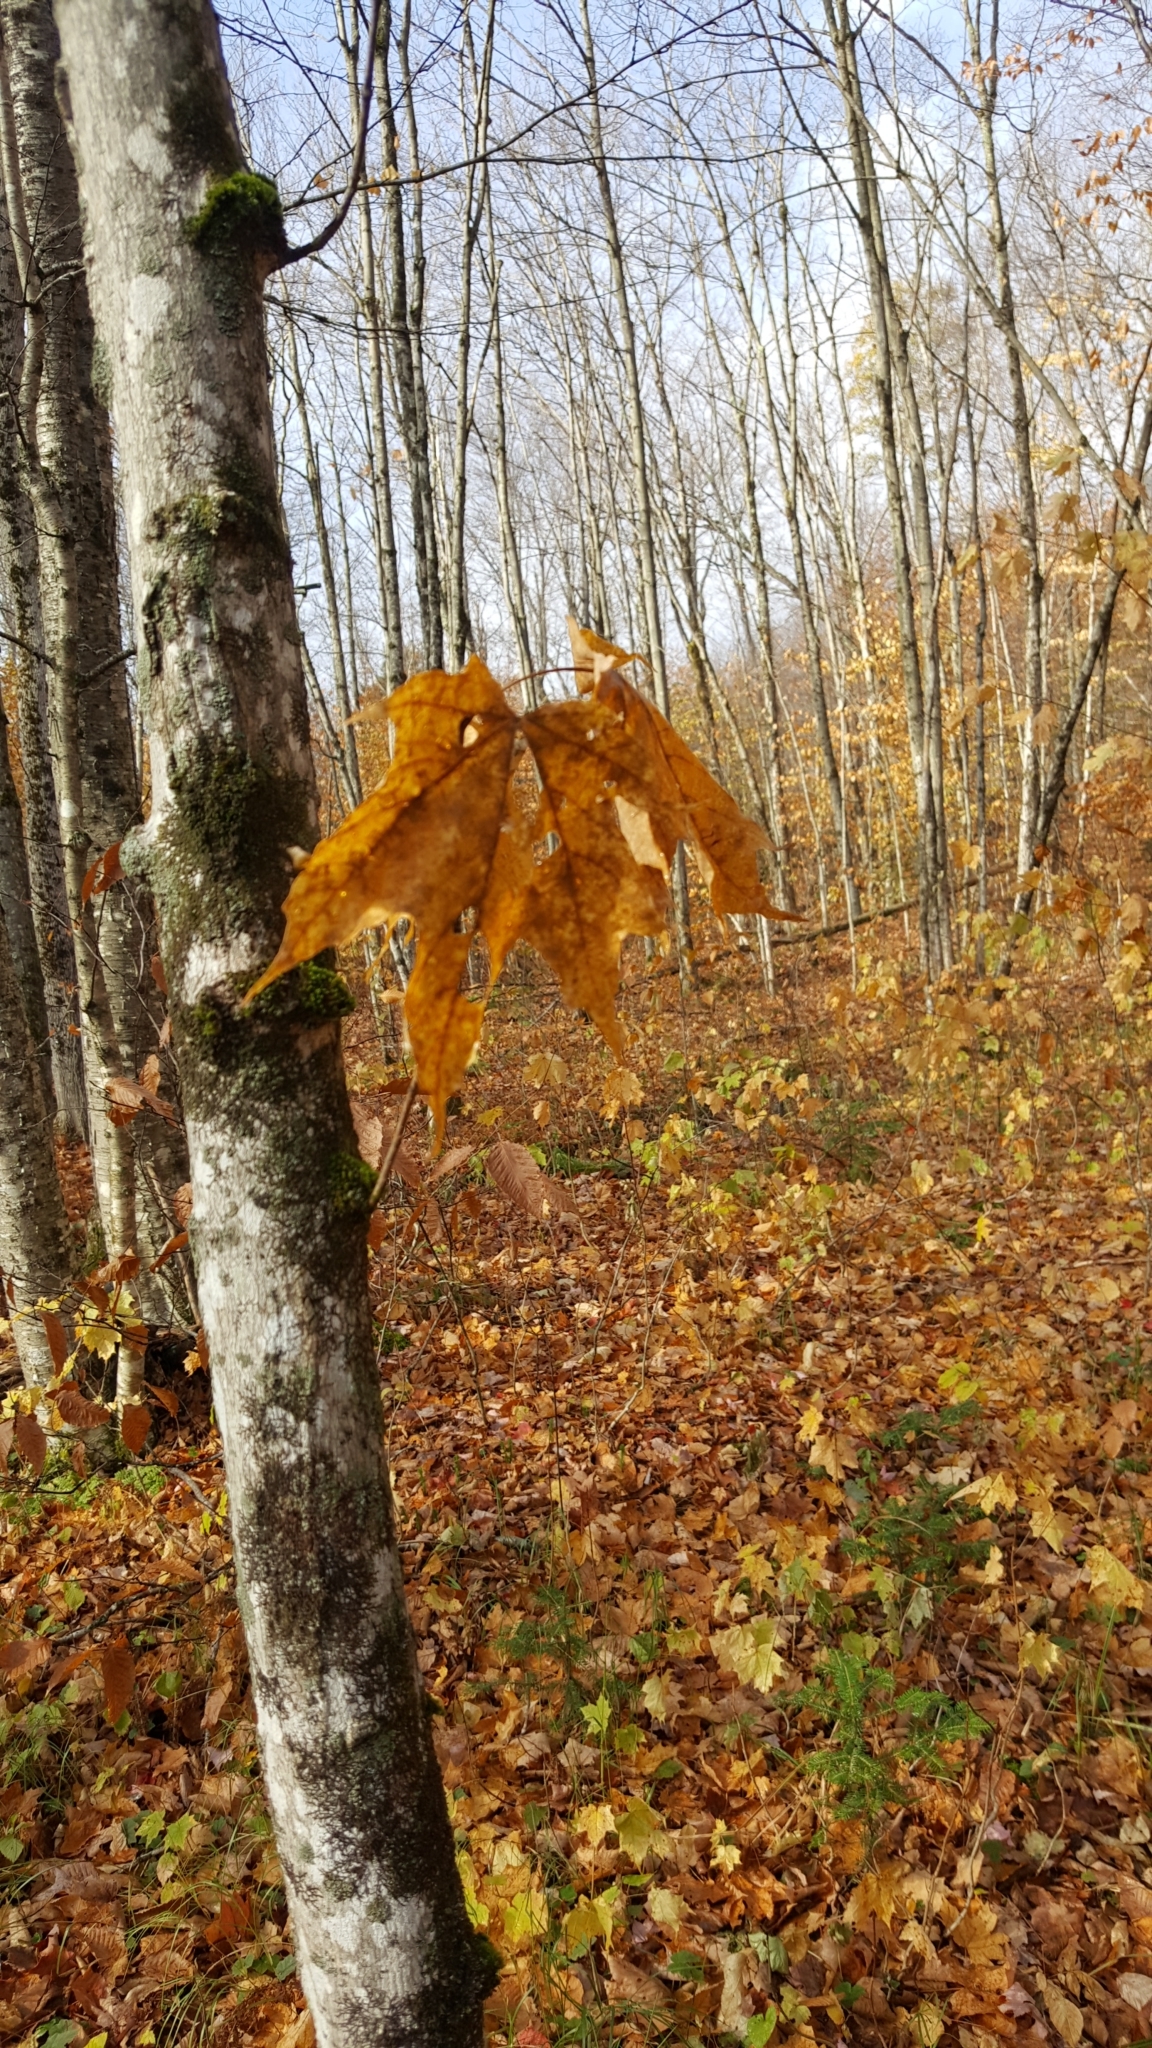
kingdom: Plantae
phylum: Tracheophyta
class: Magnoliopsida
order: Sapindales
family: Sapindaceae
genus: Acer
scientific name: Acer saccharum
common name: Sugar maple
